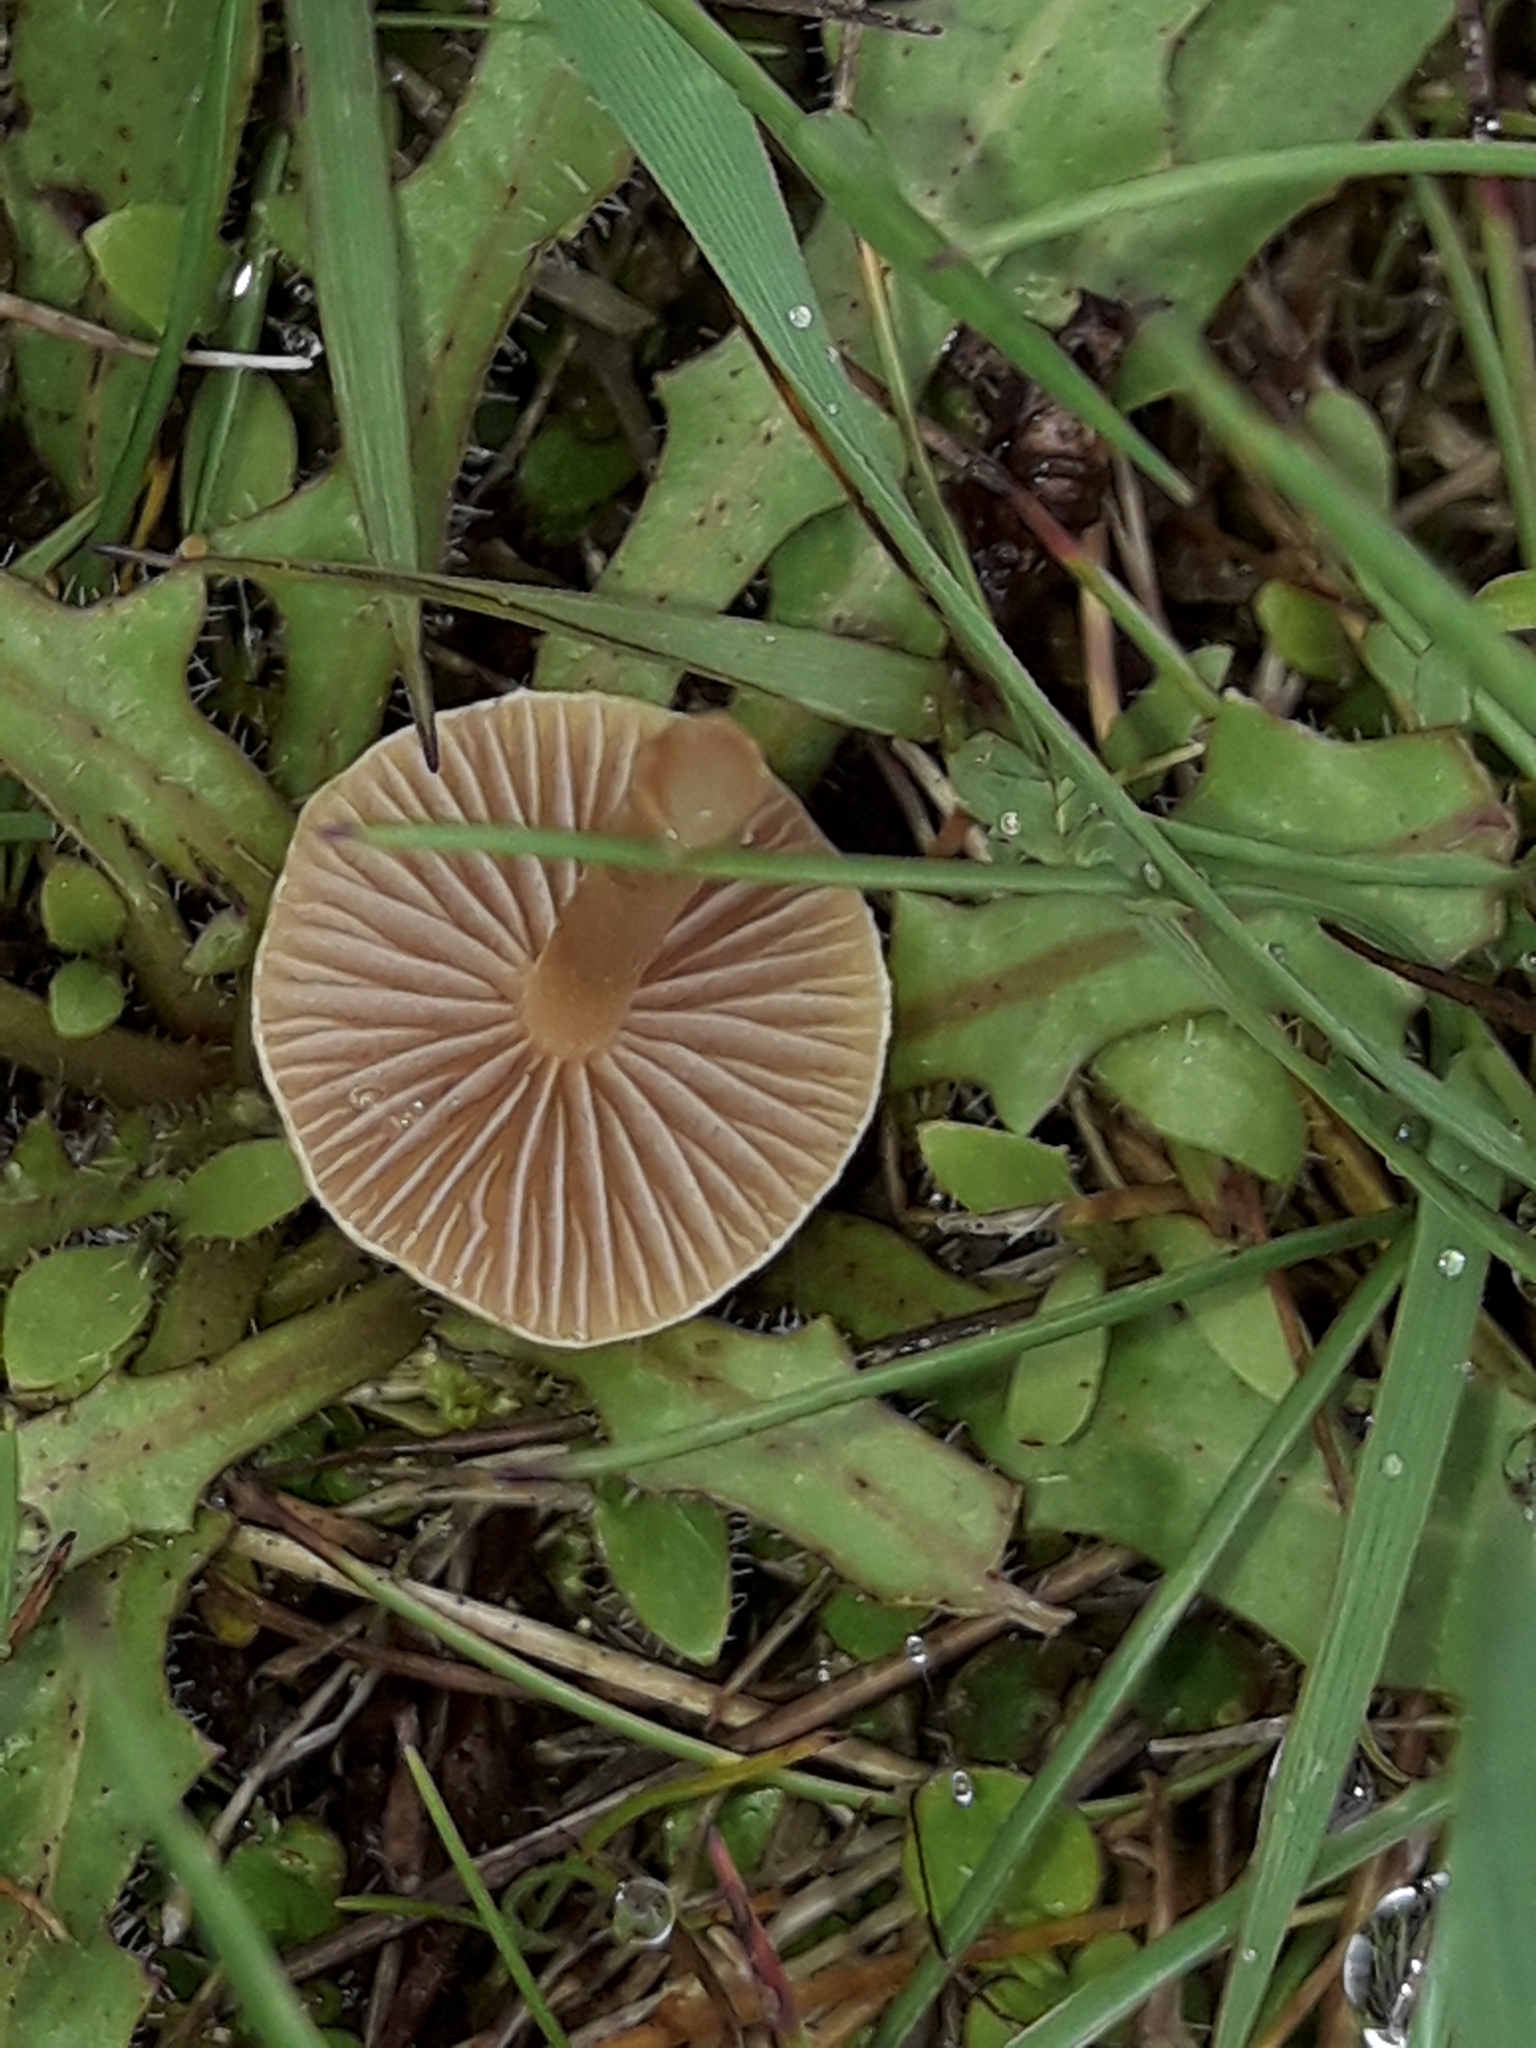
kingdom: Fungi
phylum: Basidiomycota
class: Agaricomycetes
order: Agaricales
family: Strophariaceae
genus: Agrocybe
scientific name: Agrocybe pediades
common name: Common fieldcap
